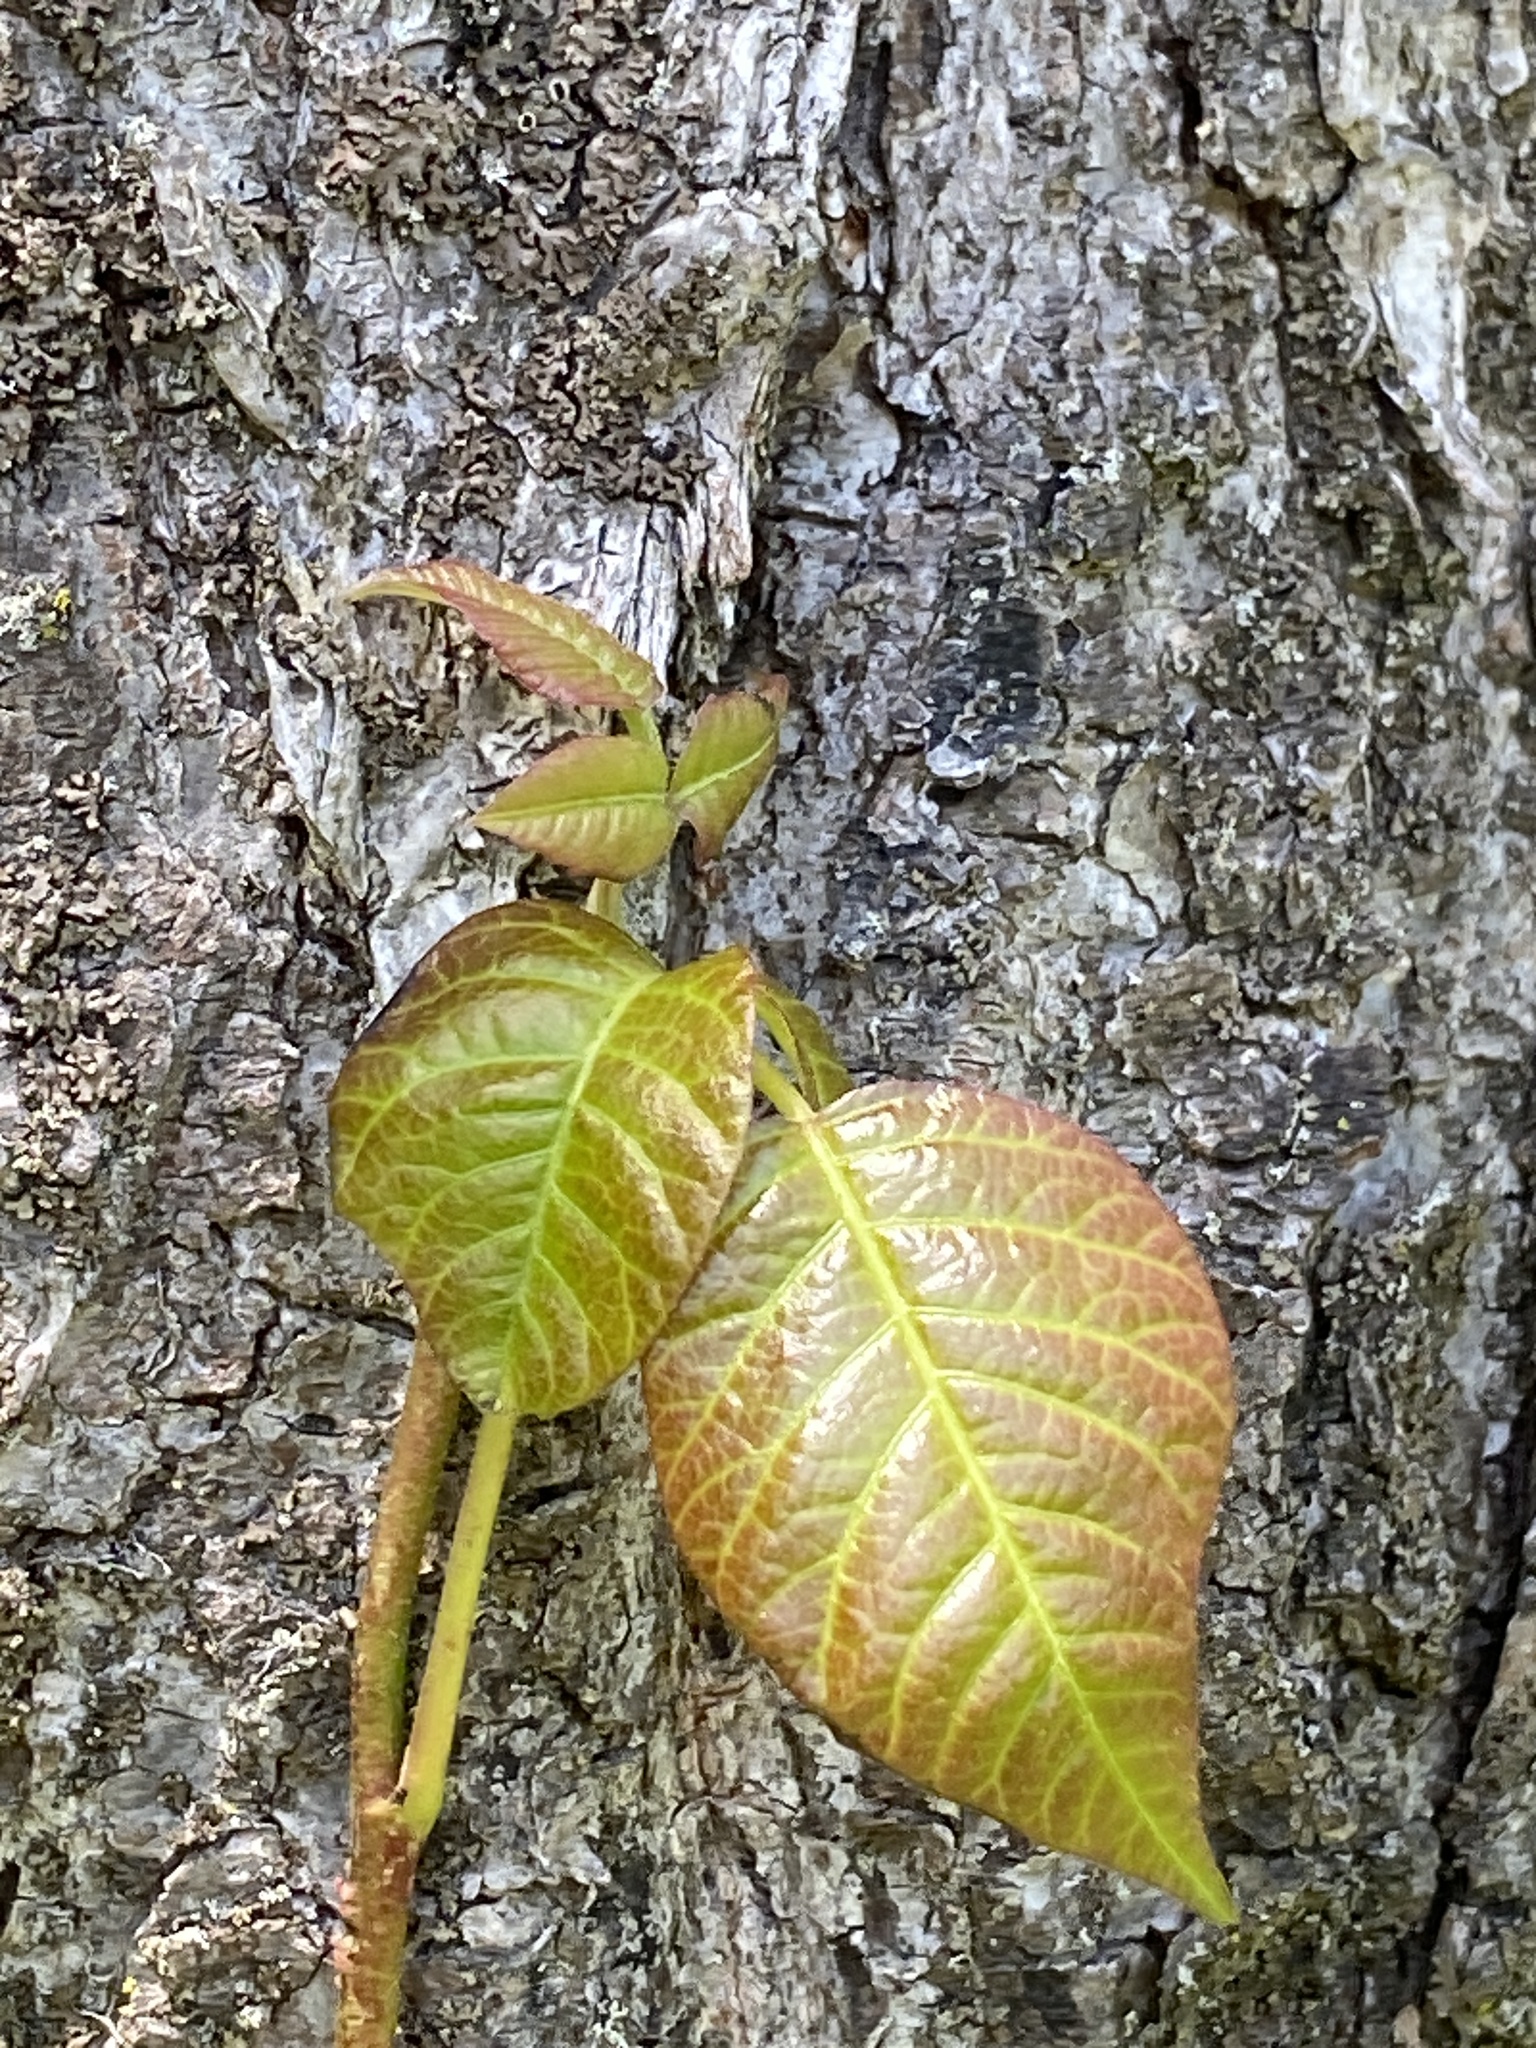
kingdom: Plantae
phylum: Tracheophyta
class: Magnoliopsida
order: Sapindales
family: Anacardiaceae
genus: Toxicodendron
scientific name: Toxicodendron radicans
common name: Poison ivy
